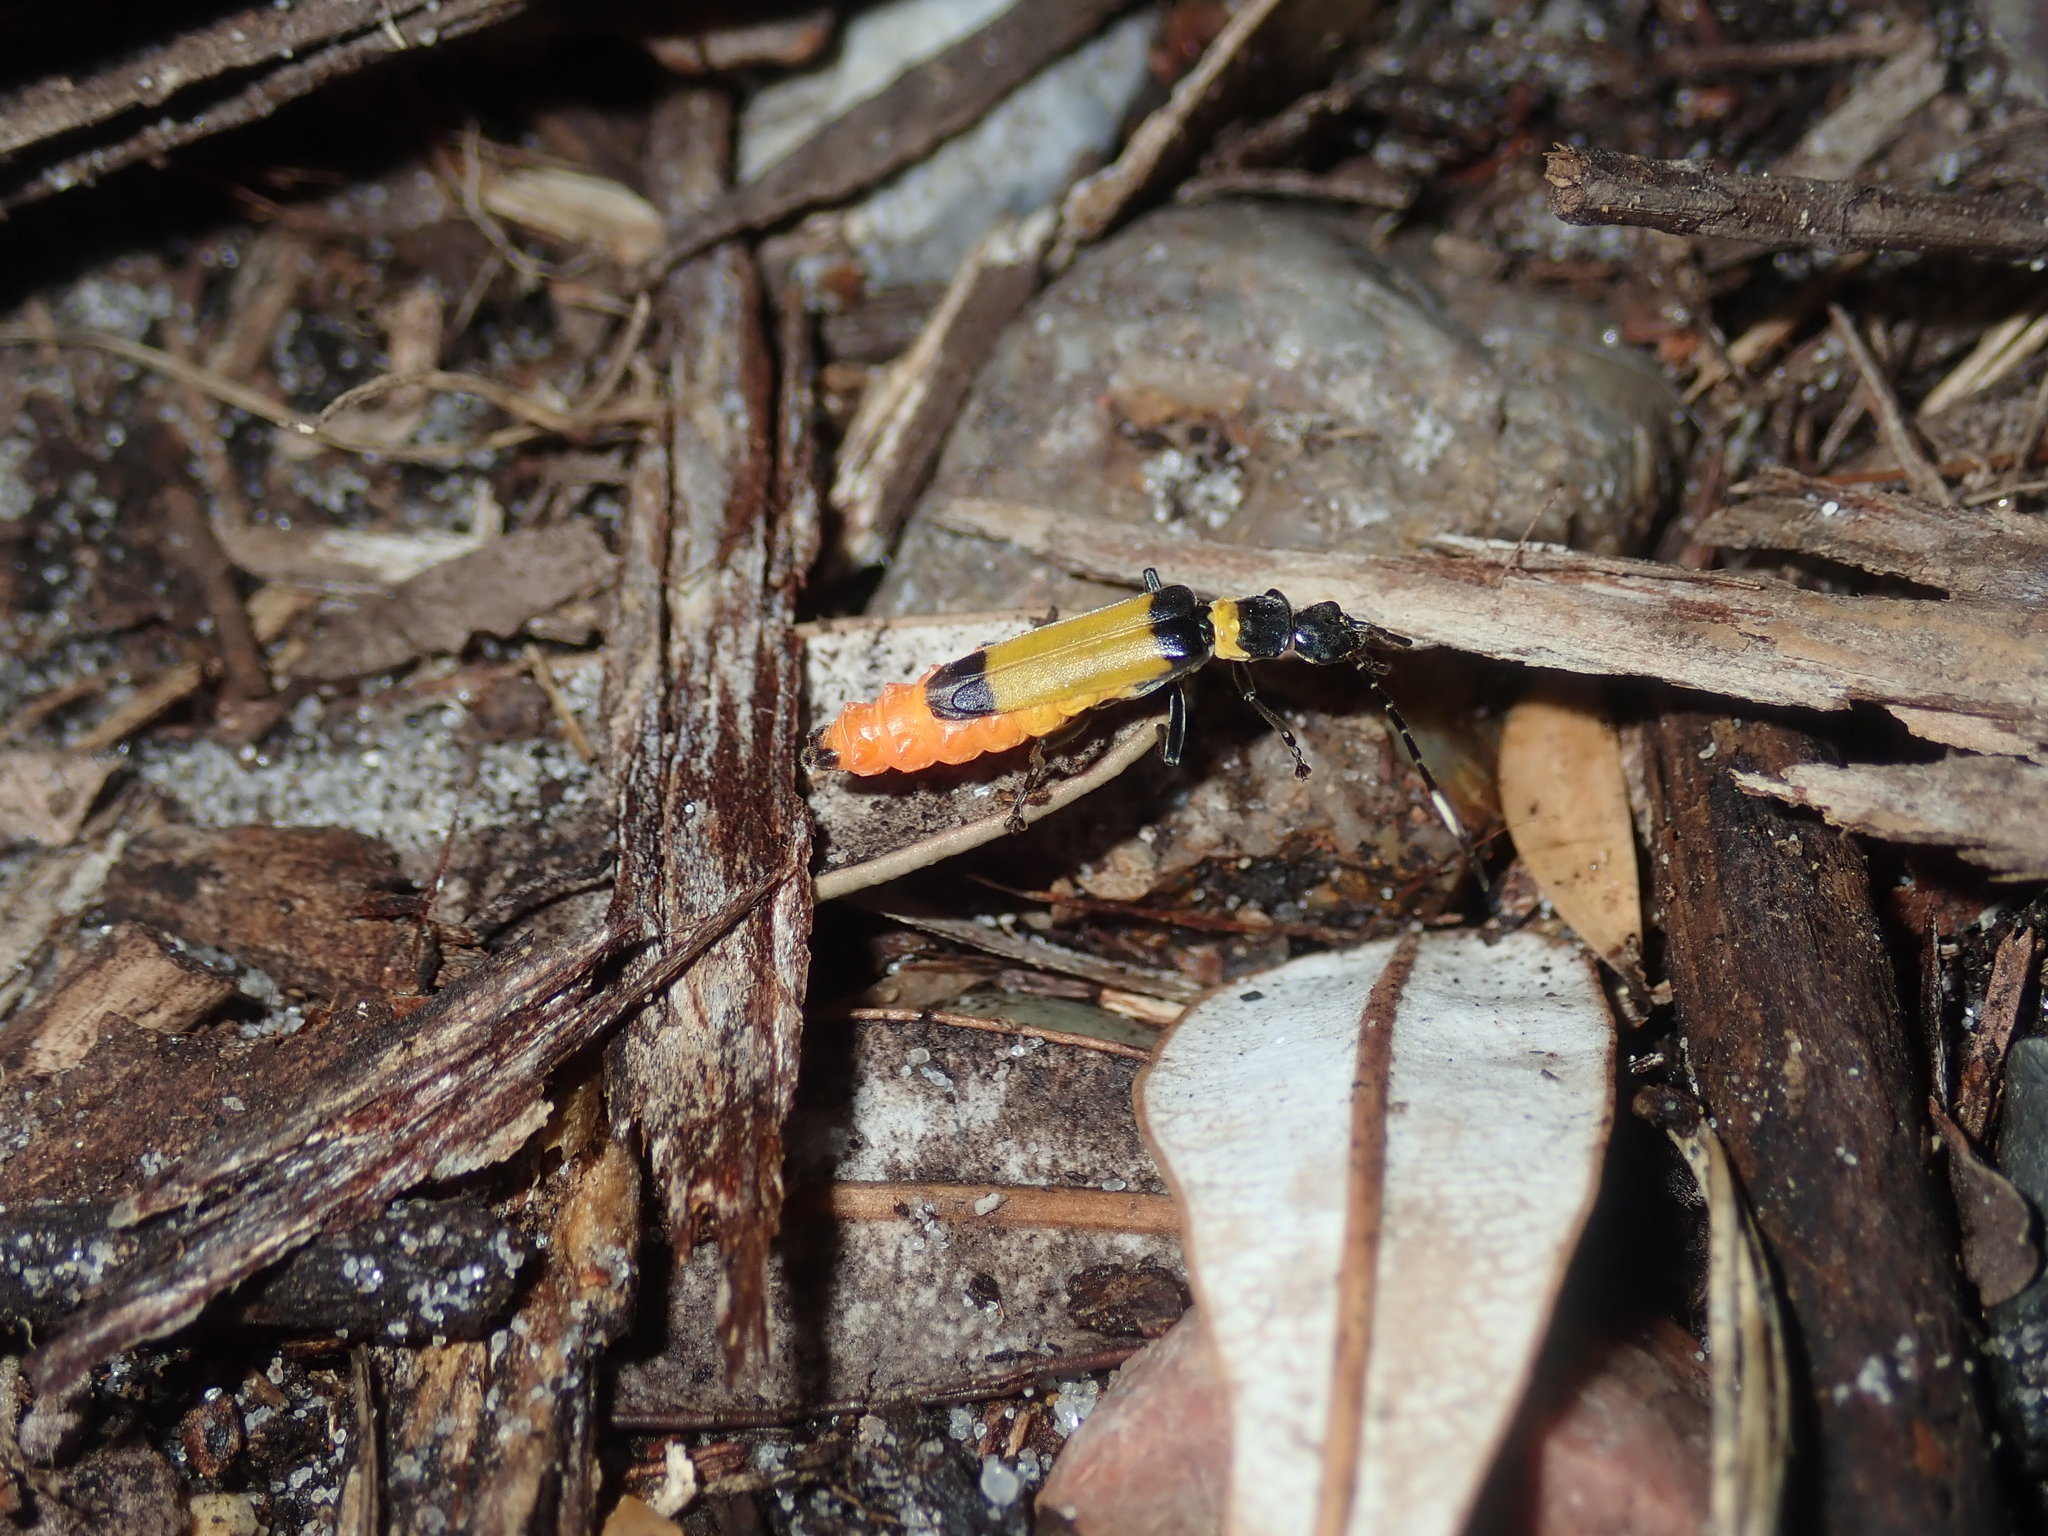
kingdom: Animalia
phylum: Arthropoda
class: Insecta
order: Coleoptera
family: Cantharidae
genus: Chauliognathus
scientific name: Chauliognathus
